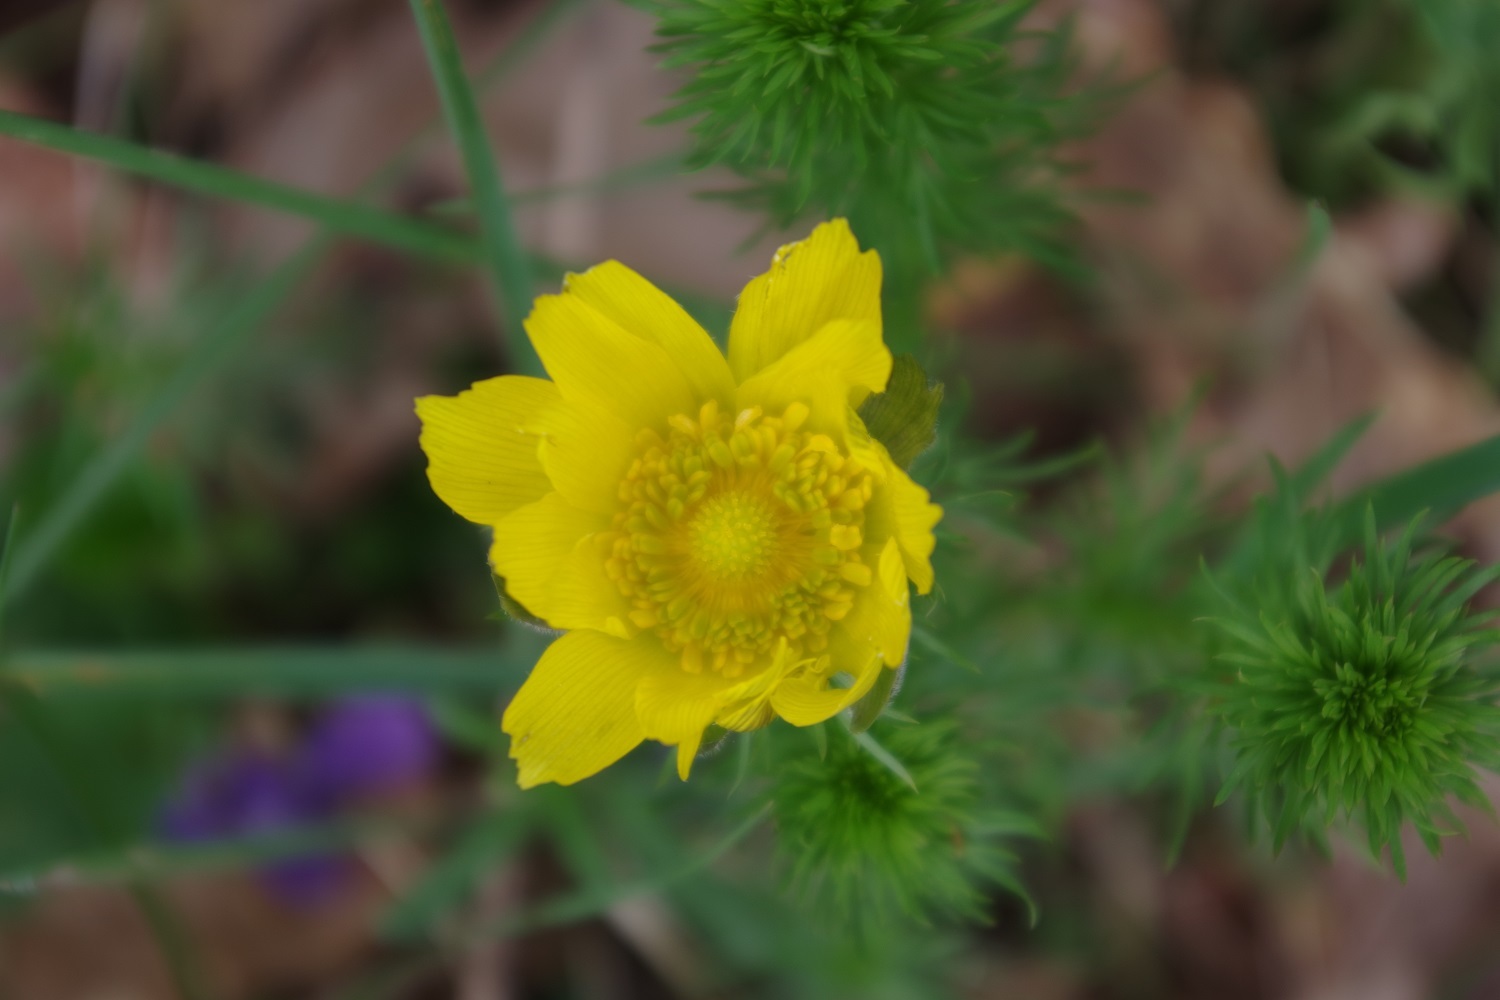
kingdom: Plantae
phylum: Tracheophyta
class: Magnoliopsida
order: Ranunculales
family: Ranunculaceae
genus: Adonis
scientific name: Adonis vernalis
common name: Yellow pheasants-eye
